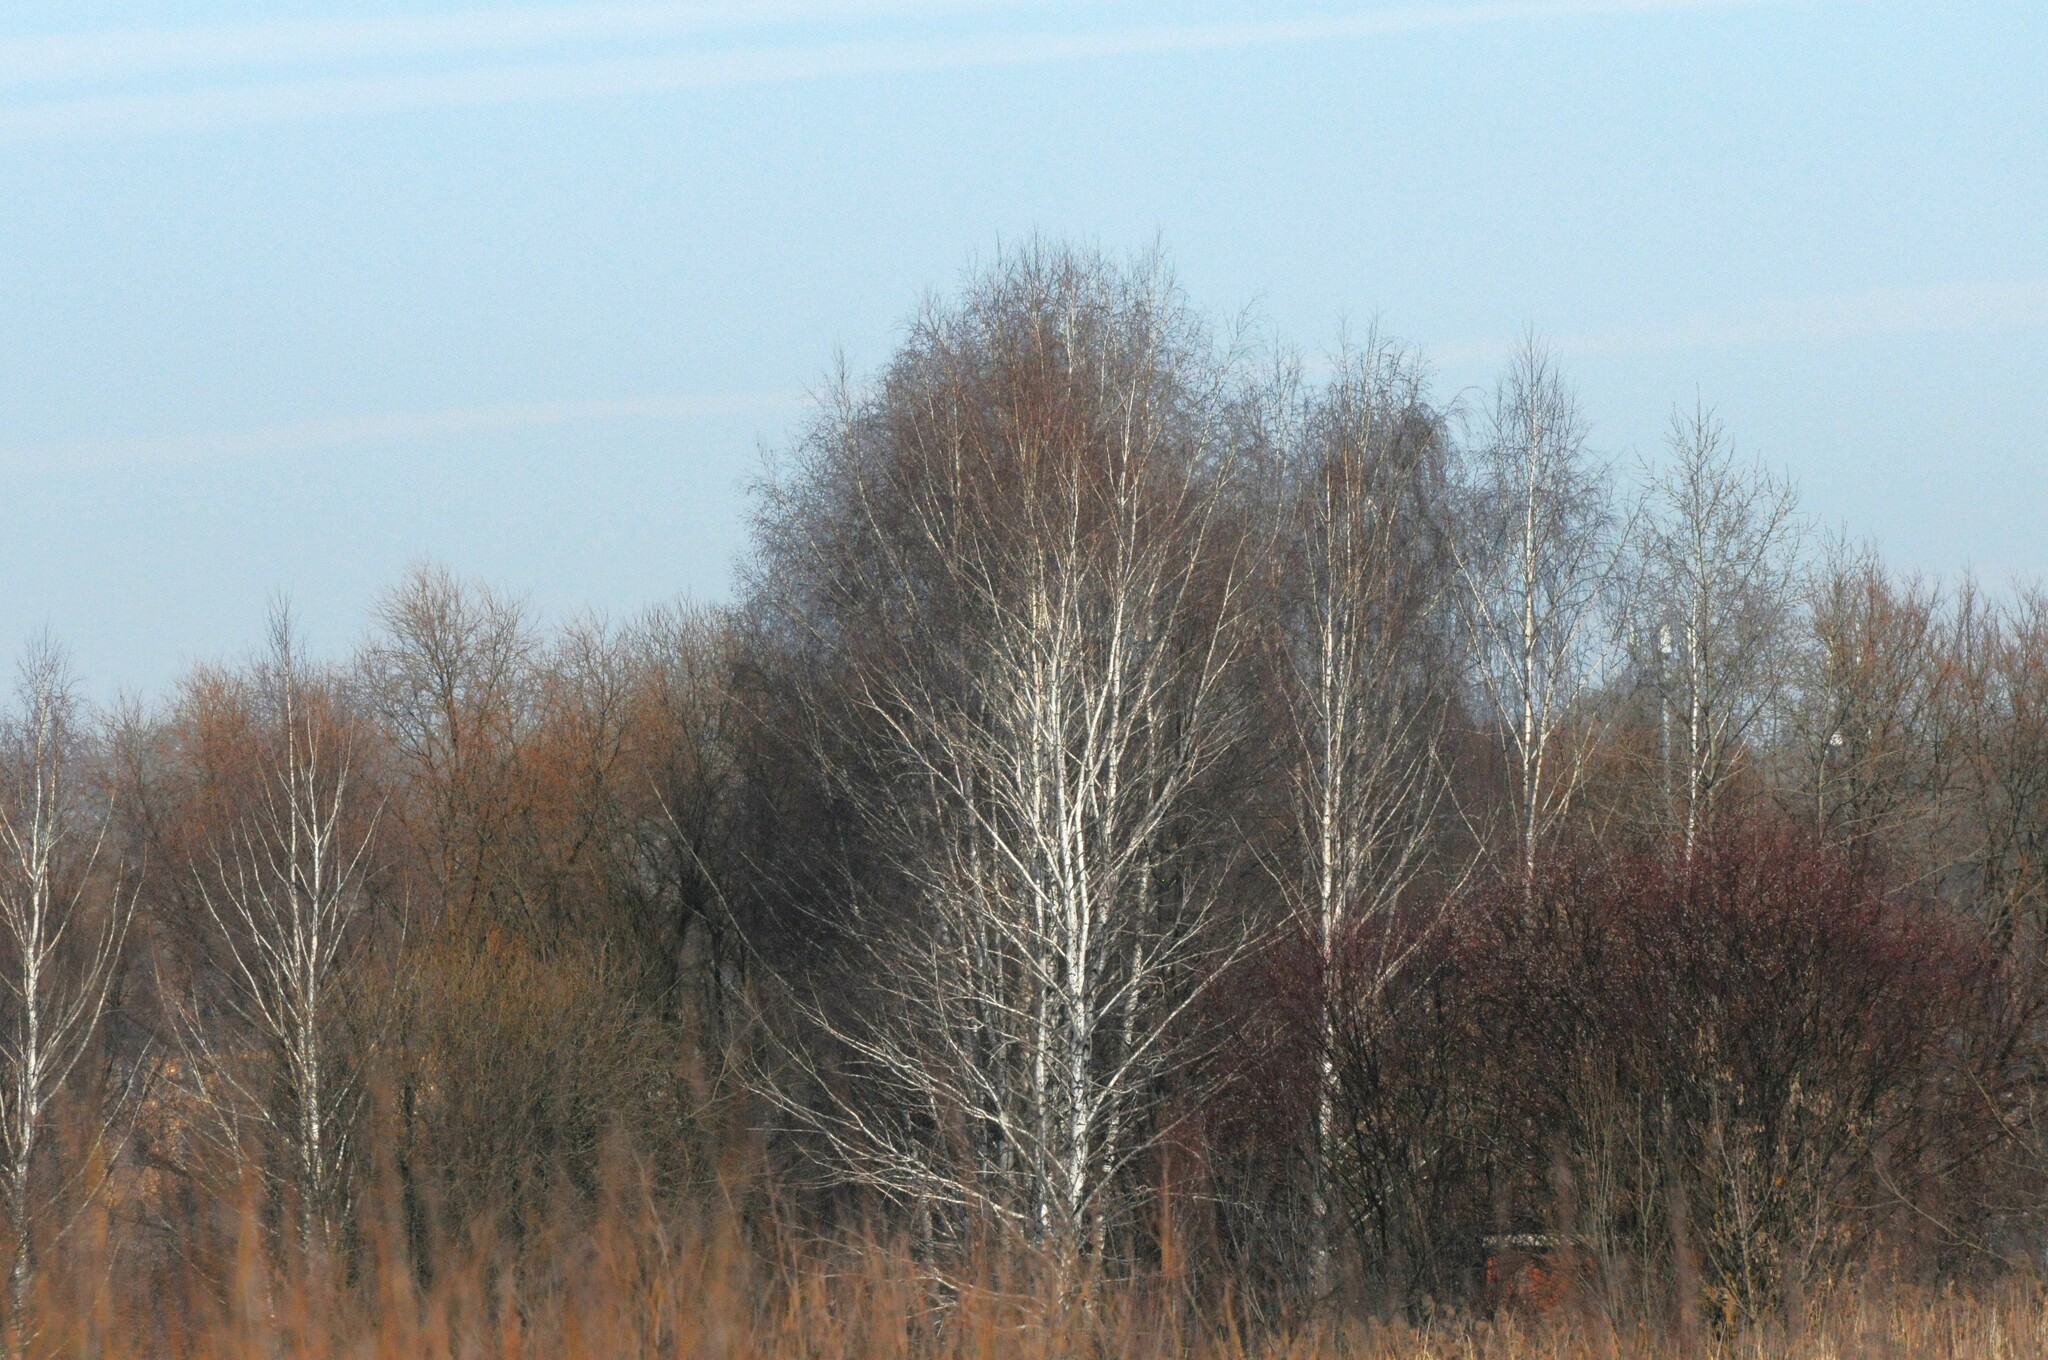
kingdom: Plantae
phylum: Tracheophyta
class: Magnoliopsida
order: Fagales
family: Betulaceae
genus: Betula
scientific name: Betula pendula
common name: Silver birch
